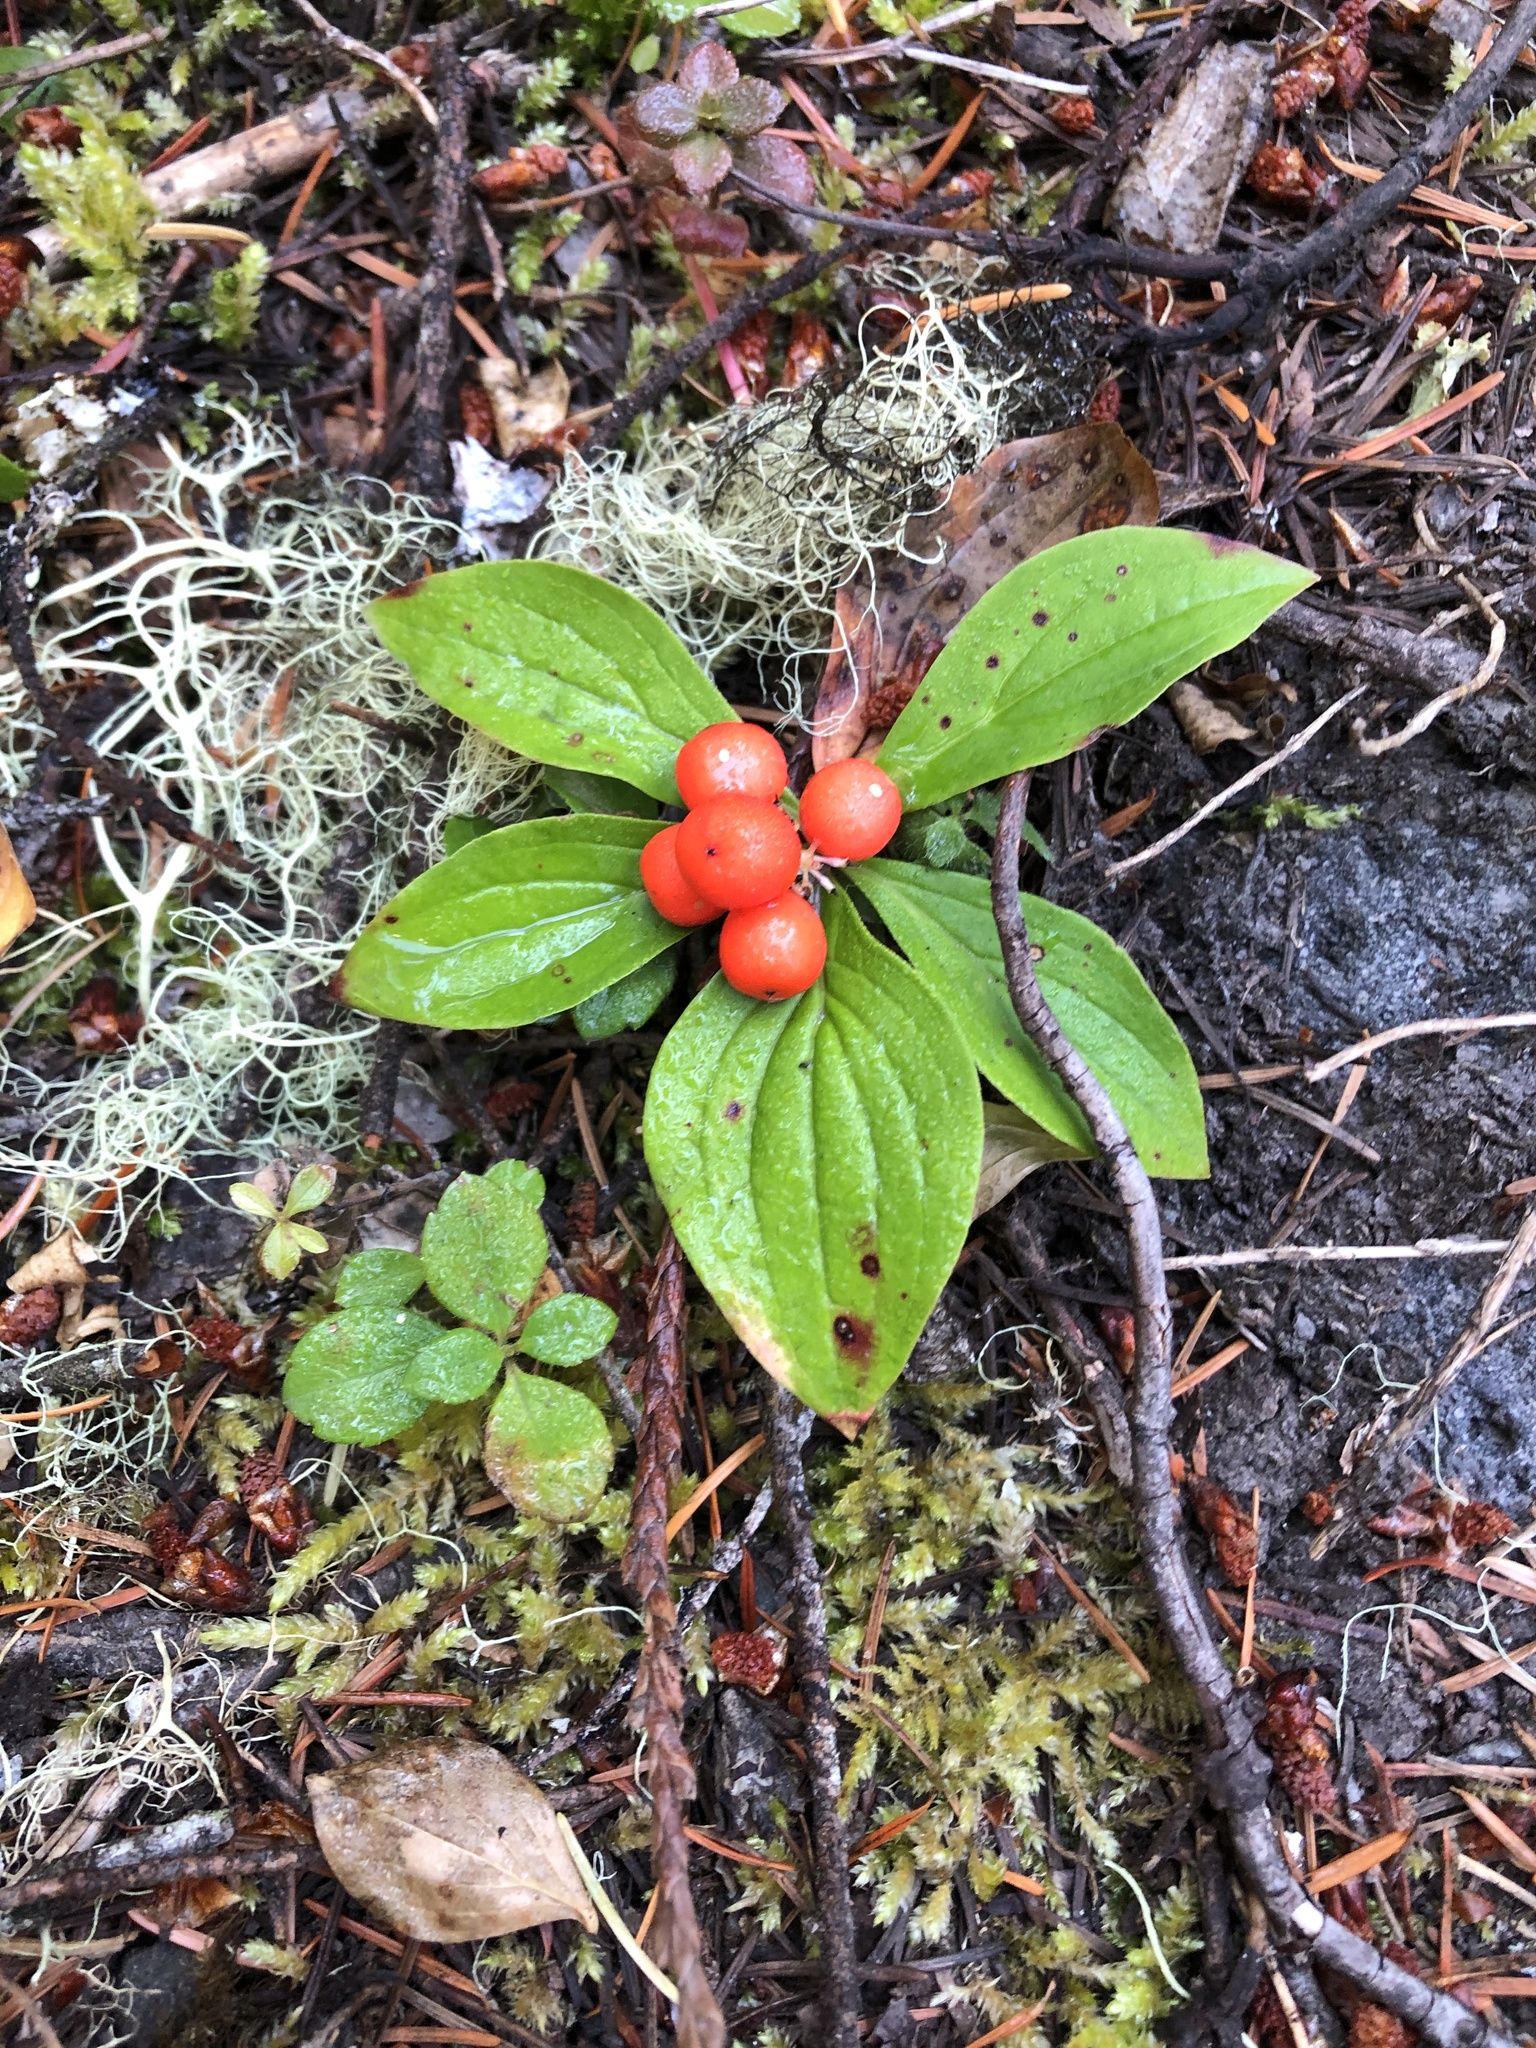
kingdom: Plantae
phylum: Tracheophyta
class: Magnoliopsida
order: Cornales
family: Cornaceae
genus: Cornus
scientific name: Cornus unalaschkensis
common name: Alaska bunchberry
